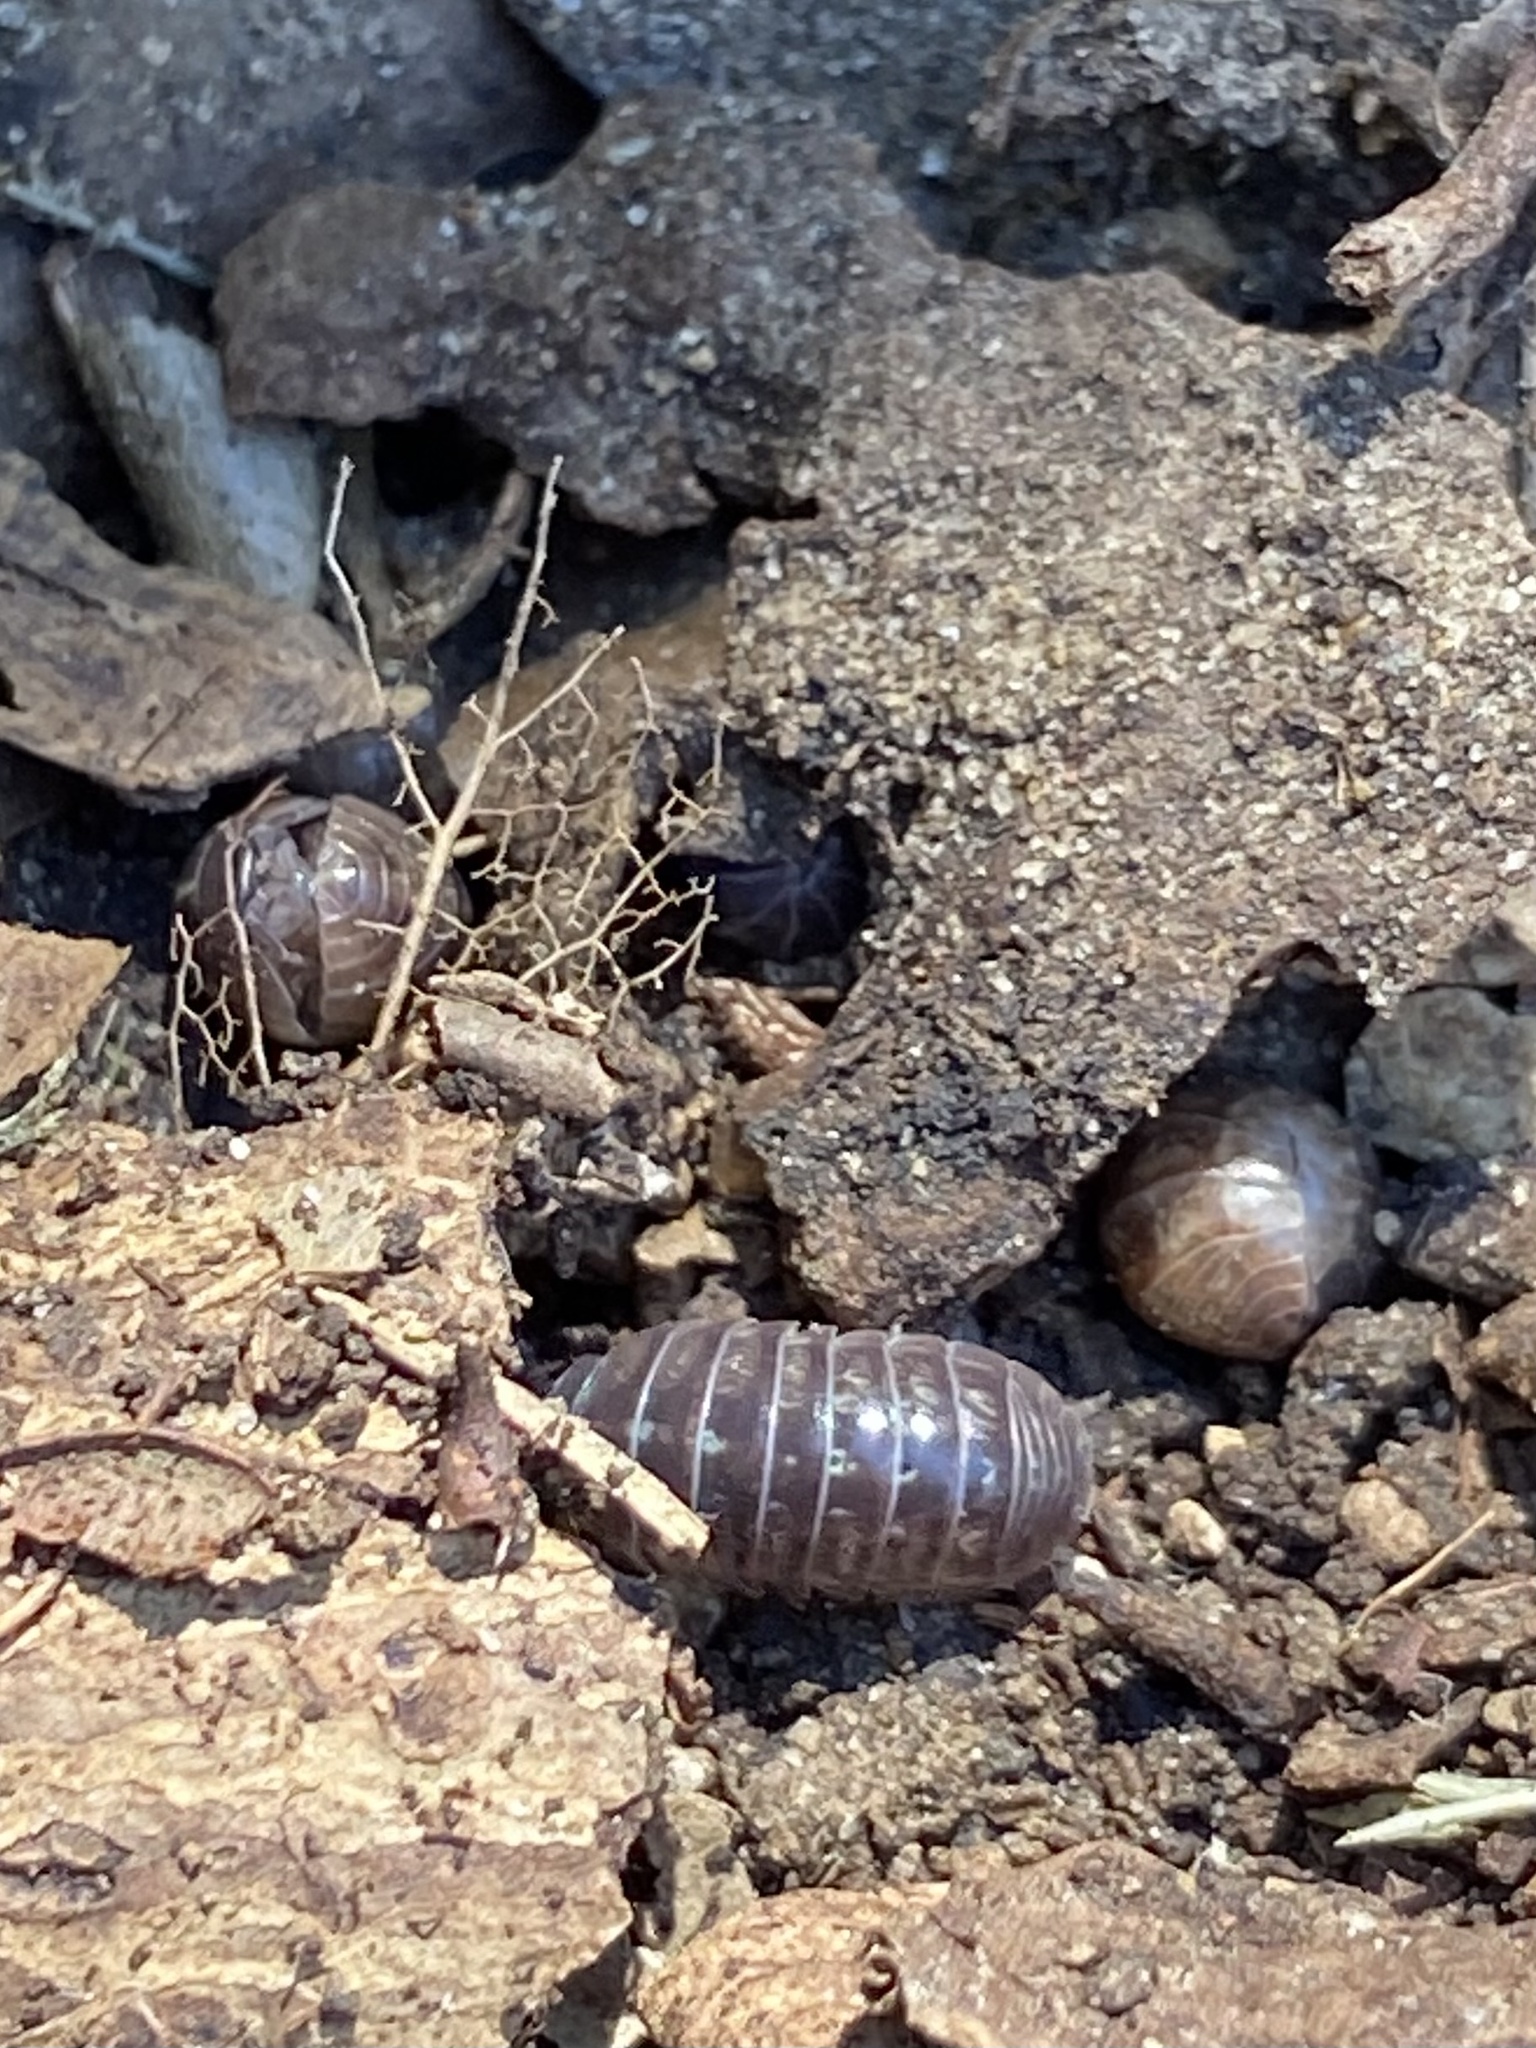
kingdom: Animalia
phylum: Arthropoda
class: Malacostraca
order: Isopoda
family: Armadillidiidae
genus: Armadillidium
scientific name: Armadillidium vulgare
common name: Common pill woodlouse
